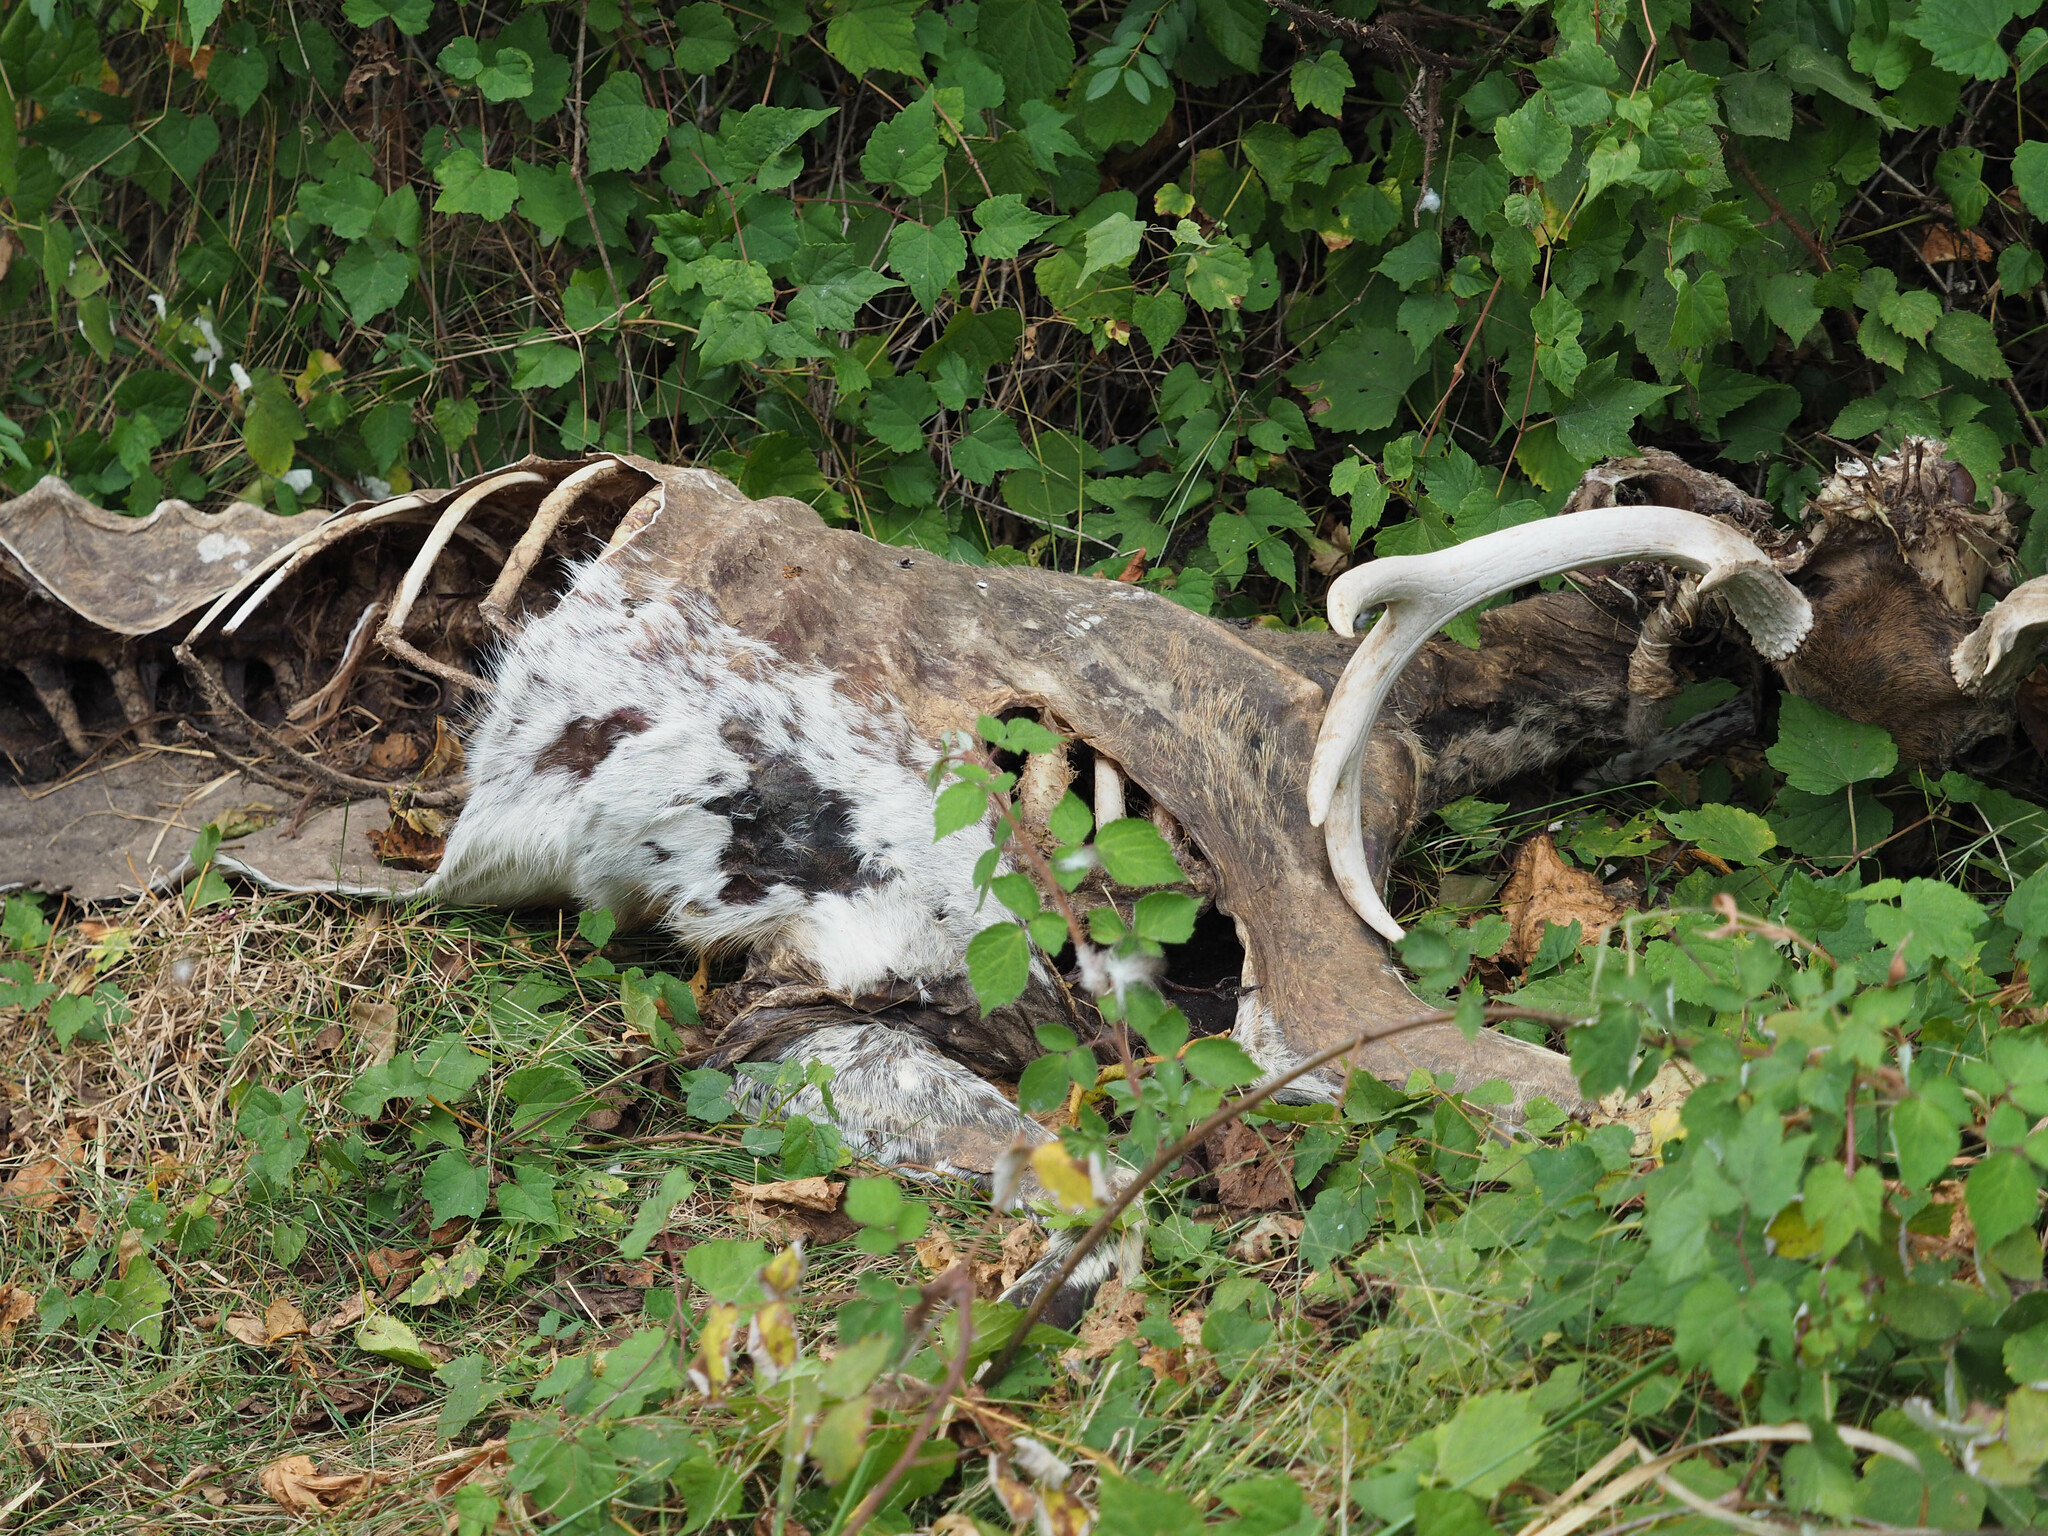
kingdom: Animalia
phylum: Chordata
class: Mammalia
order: Artiodactyla
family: Cervidae
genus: Odocoileus
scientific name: Odocoileus virginianus
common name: White-tailed deer
